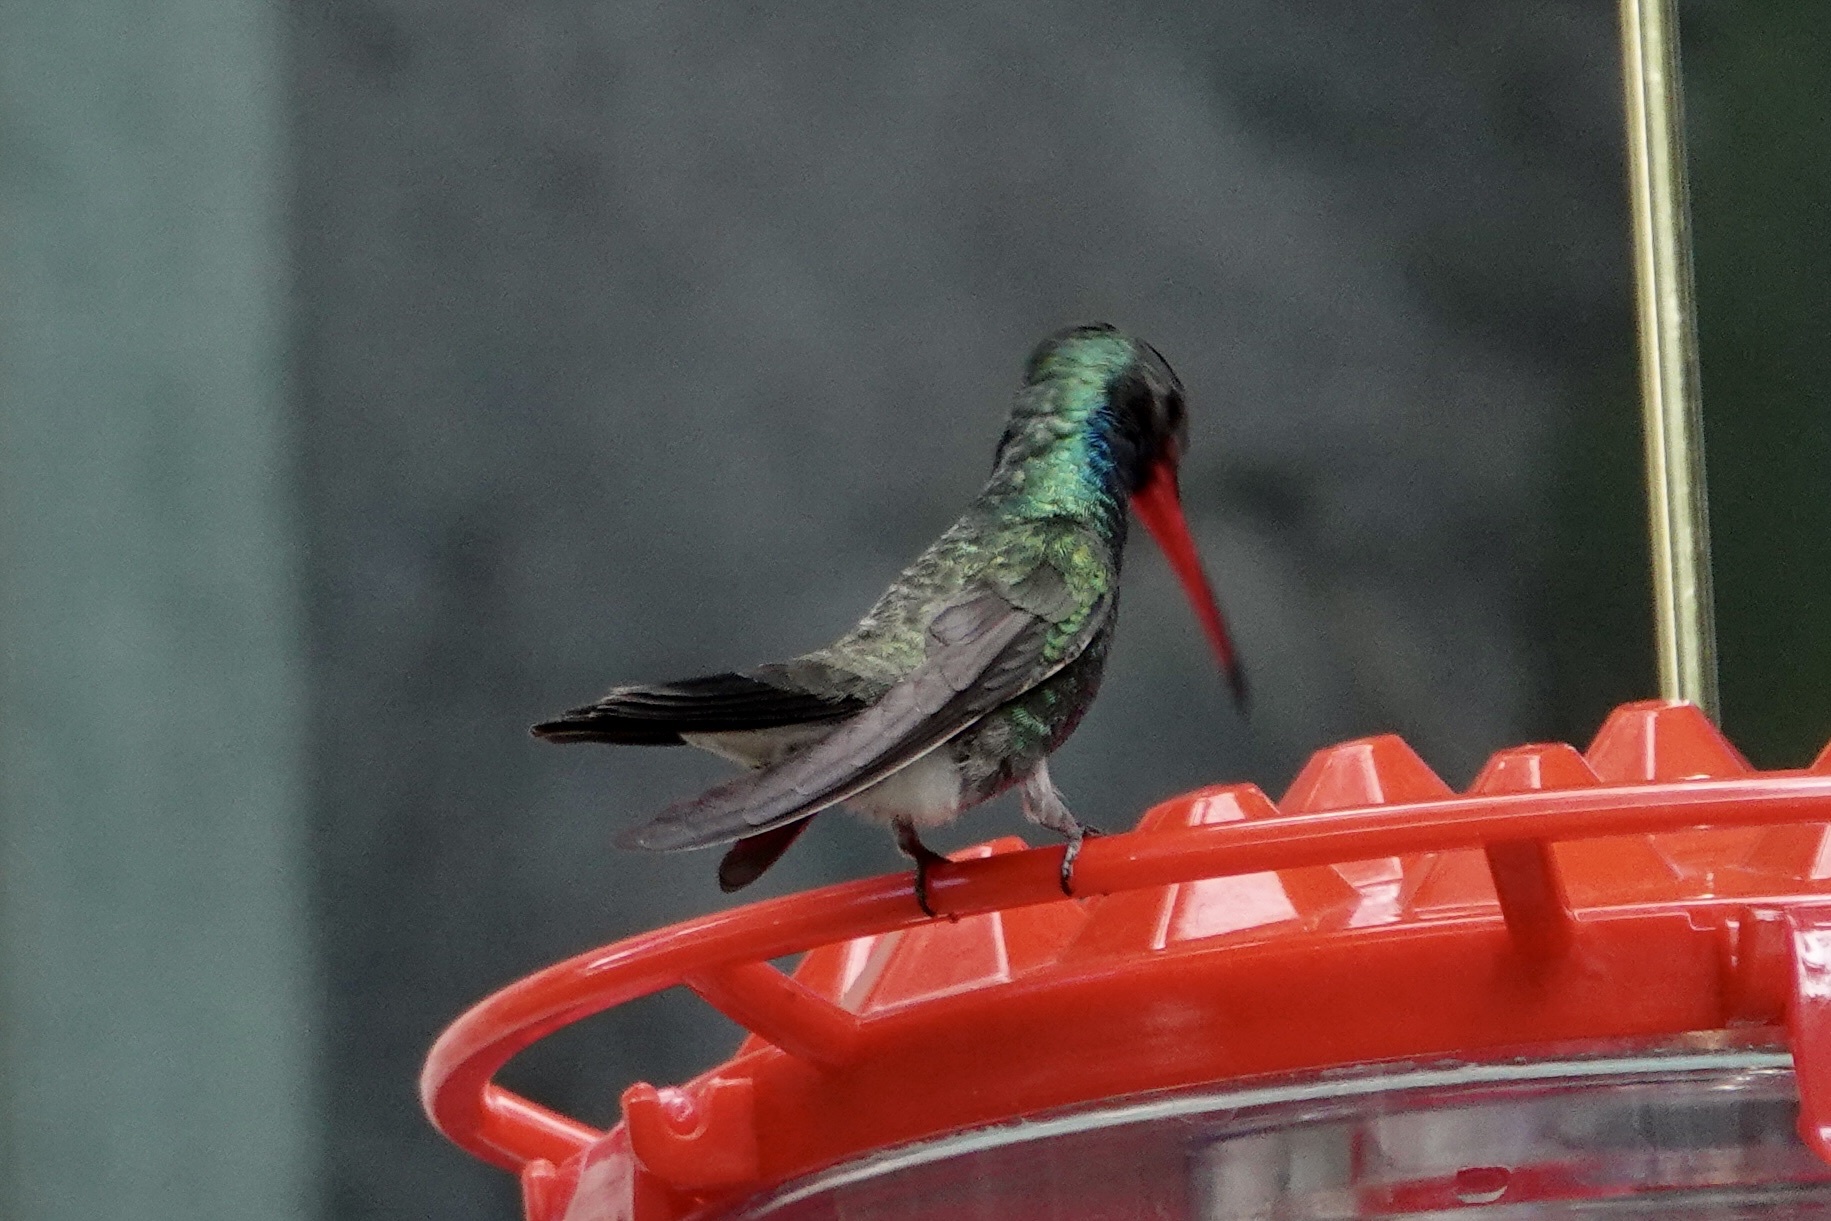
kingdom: Animalia
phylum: Chordata
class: Aves
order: Apodiformes
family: Trochilidae
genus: Cynanthus
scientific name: Cynanthus latirostris
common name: Broad-billed hummingbird
